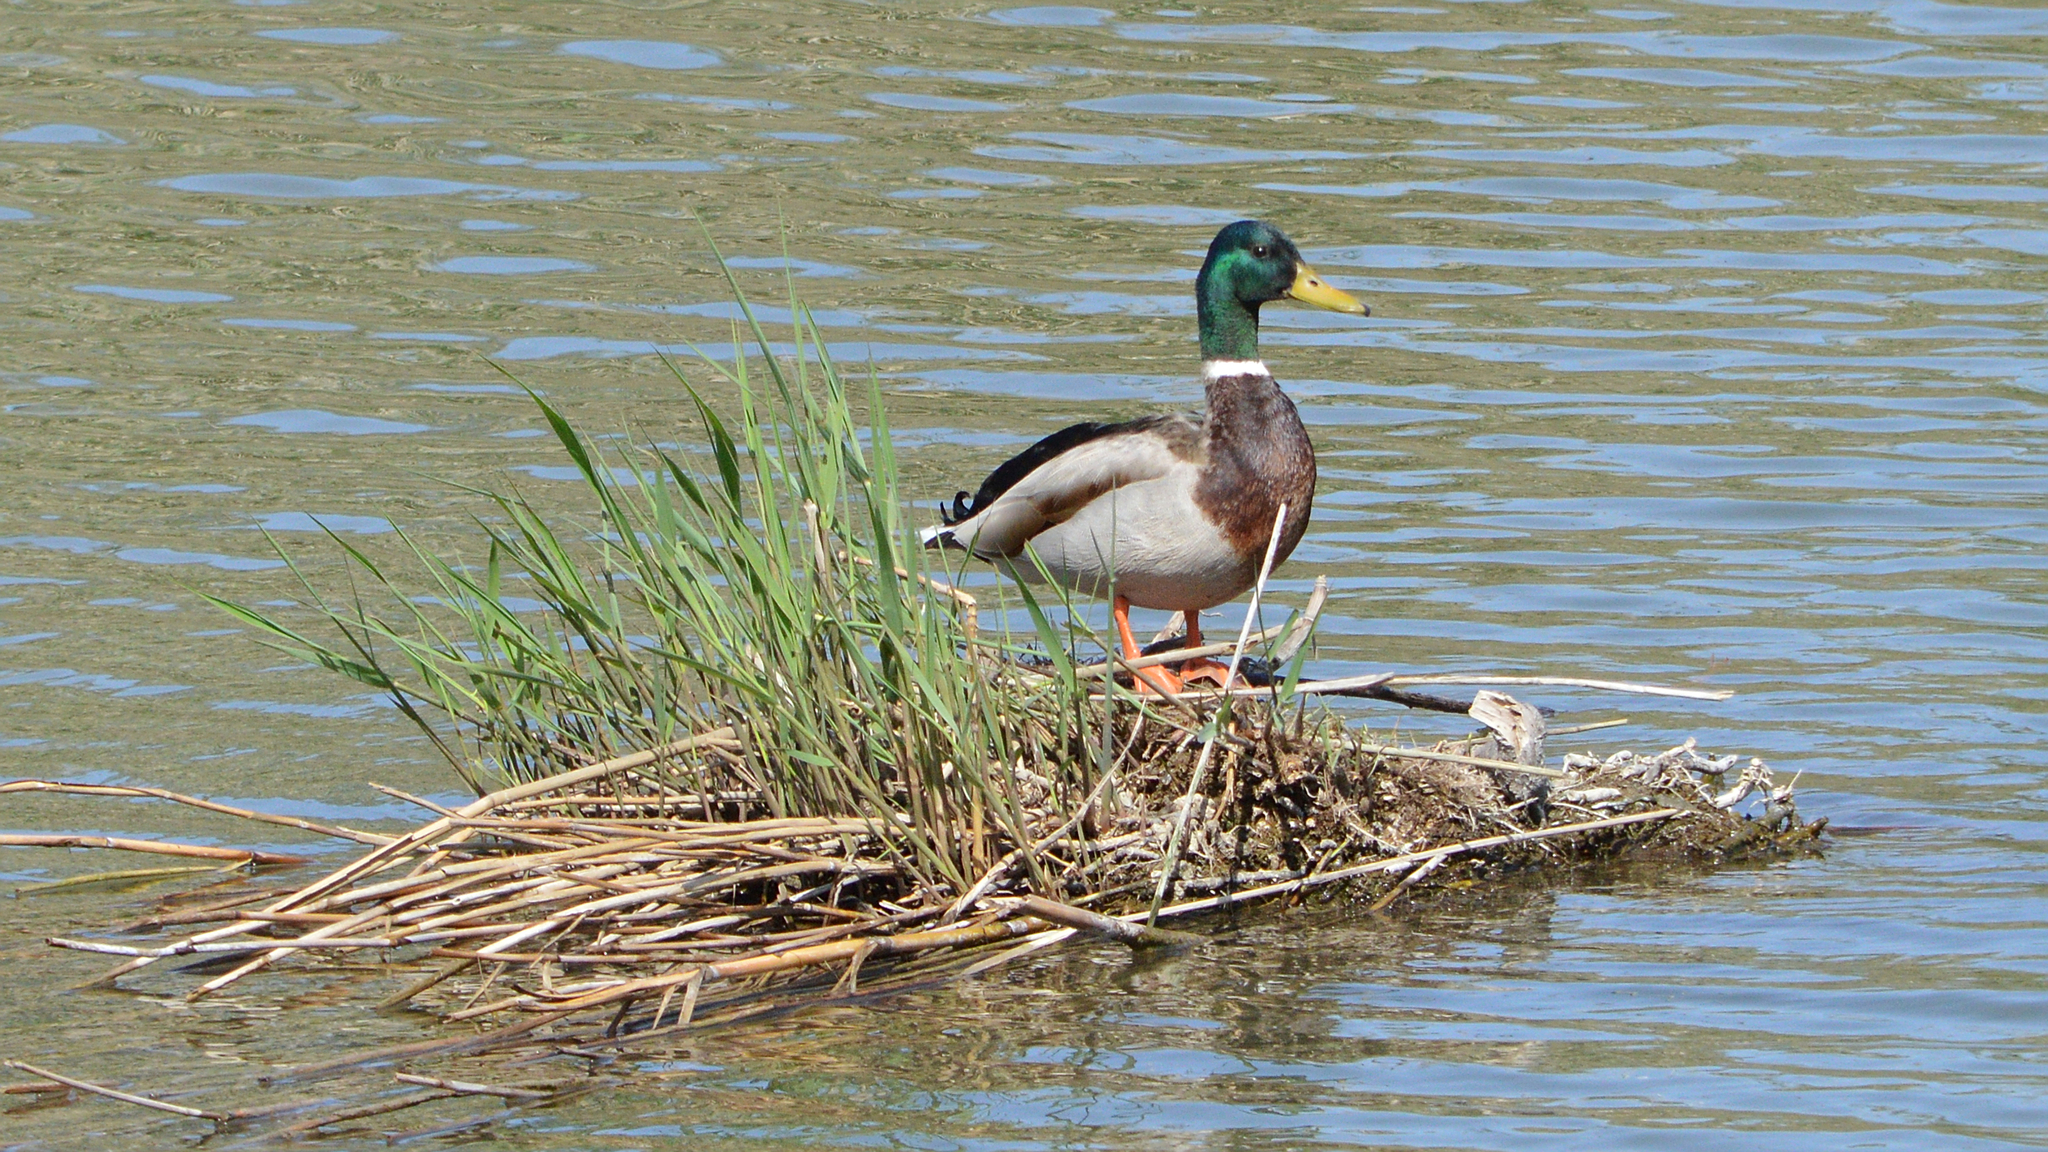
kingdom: Animalia
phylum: Chordata
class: Aves
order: Anseriformes
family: Anatidae
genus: Anas
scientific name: Anas platyrhynchos
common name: Mallard
